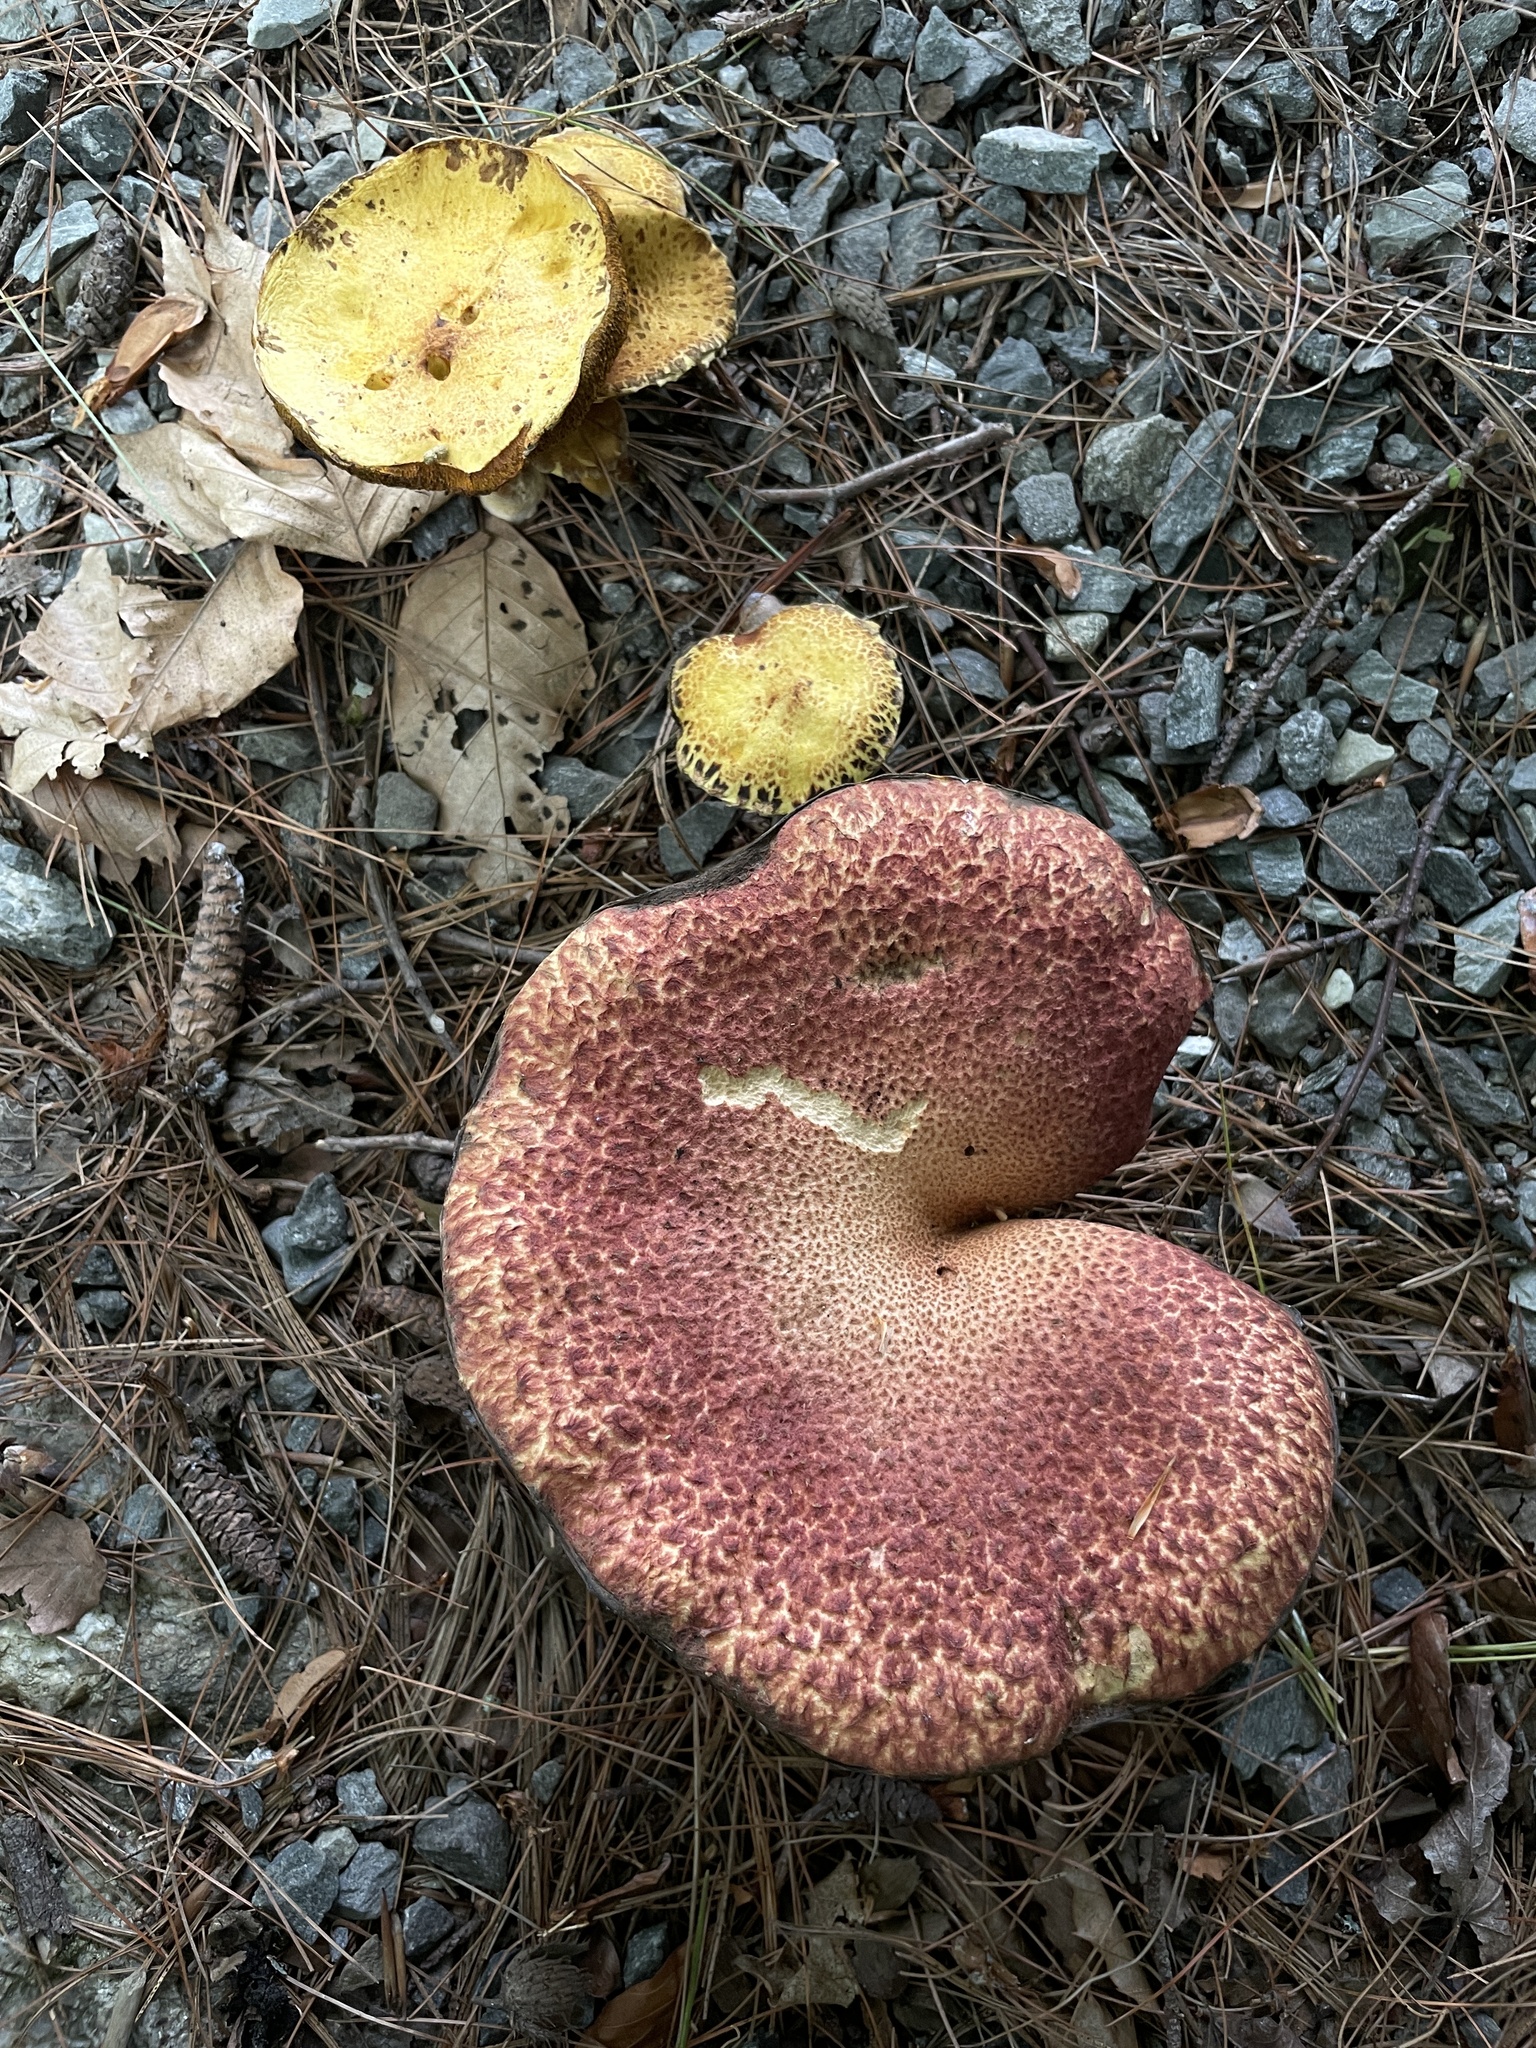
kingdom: Fungi
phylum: Basidiomycota
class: Agaricomycetes
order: Boletales
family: Suillaceae
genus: Suillus
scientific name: Suillus spraguei
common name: Painted suillus
